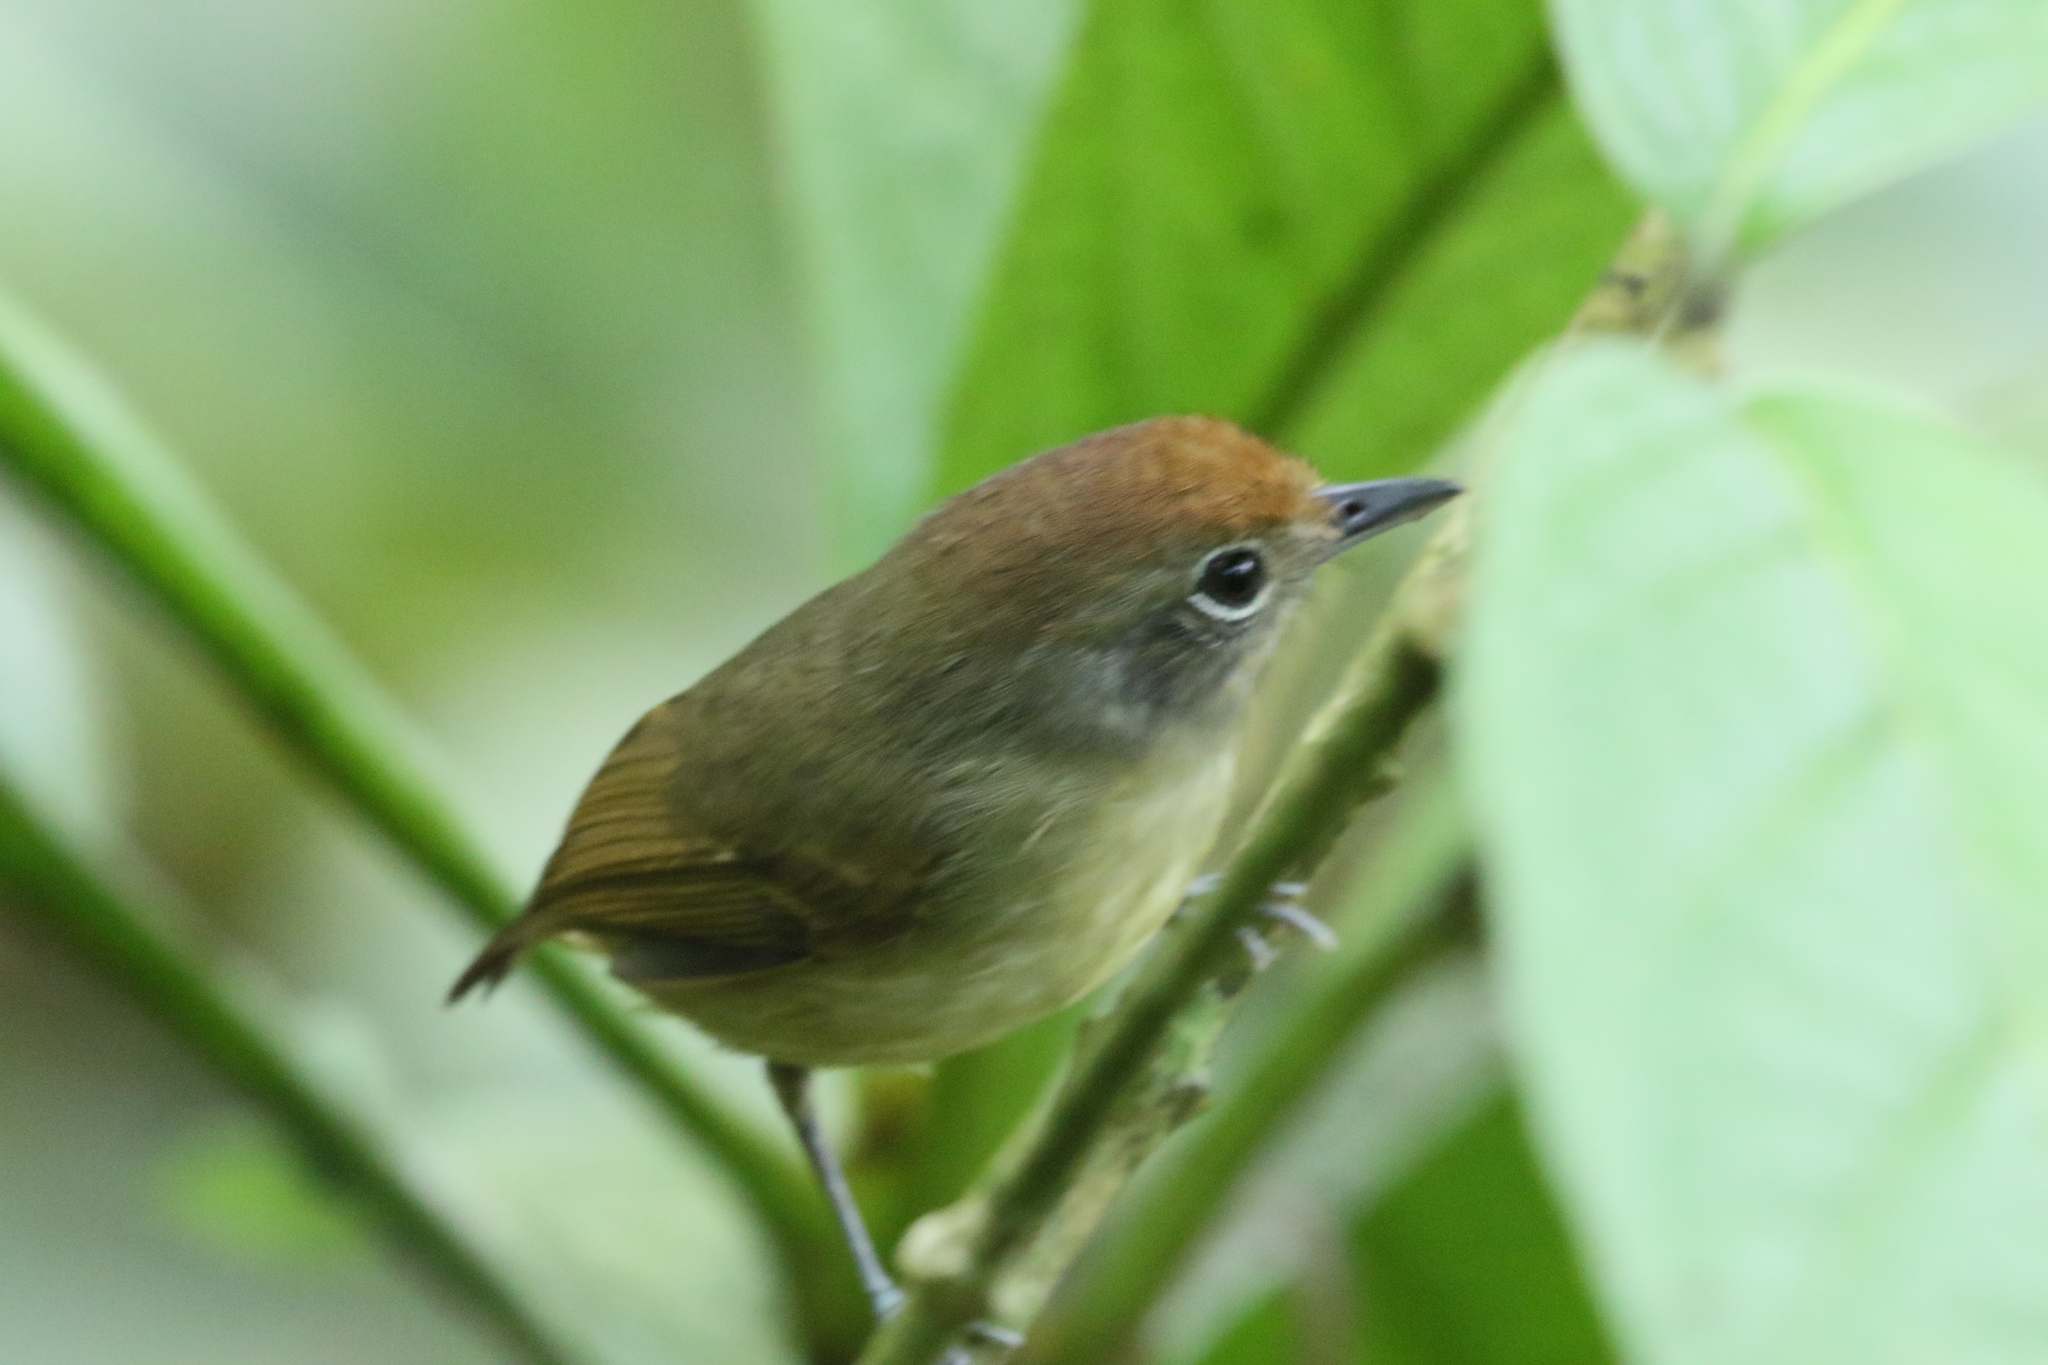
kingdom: Animalia
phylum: Chordata
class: Aves
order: Passeriformes
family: Thamnophilidae
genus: Dysithamnus
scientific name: Dysithamnus mentalis
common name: Plain antvireo
